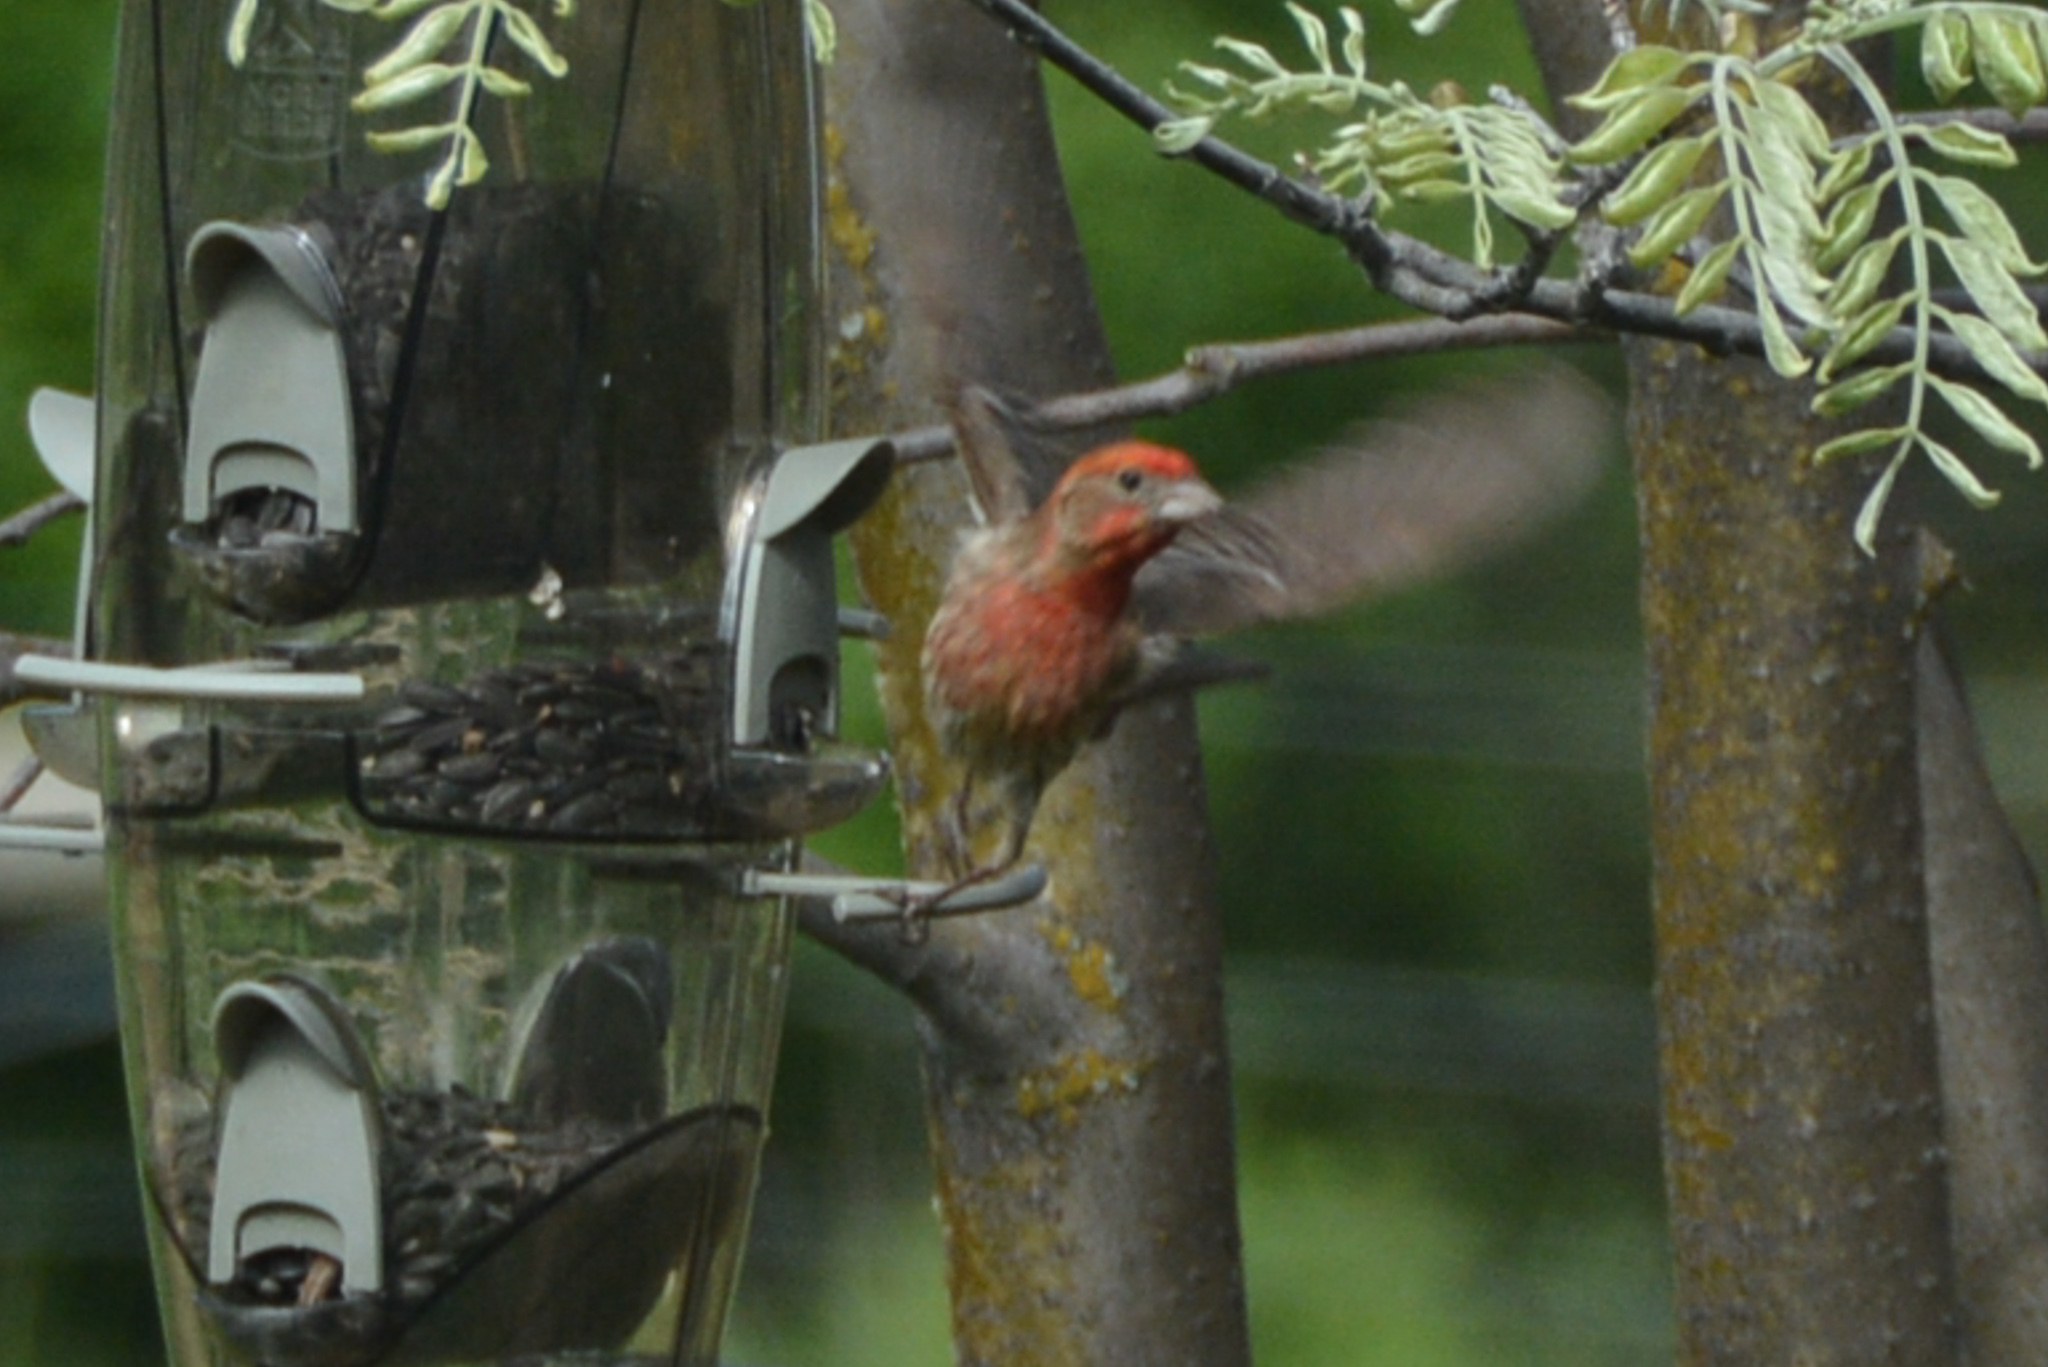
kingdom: Animalia
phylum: Chordata
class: Aves
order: Passeriformes
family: Fringillidae
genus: Haemorhous
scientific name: Haemorhous mexicanus
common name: House finch
